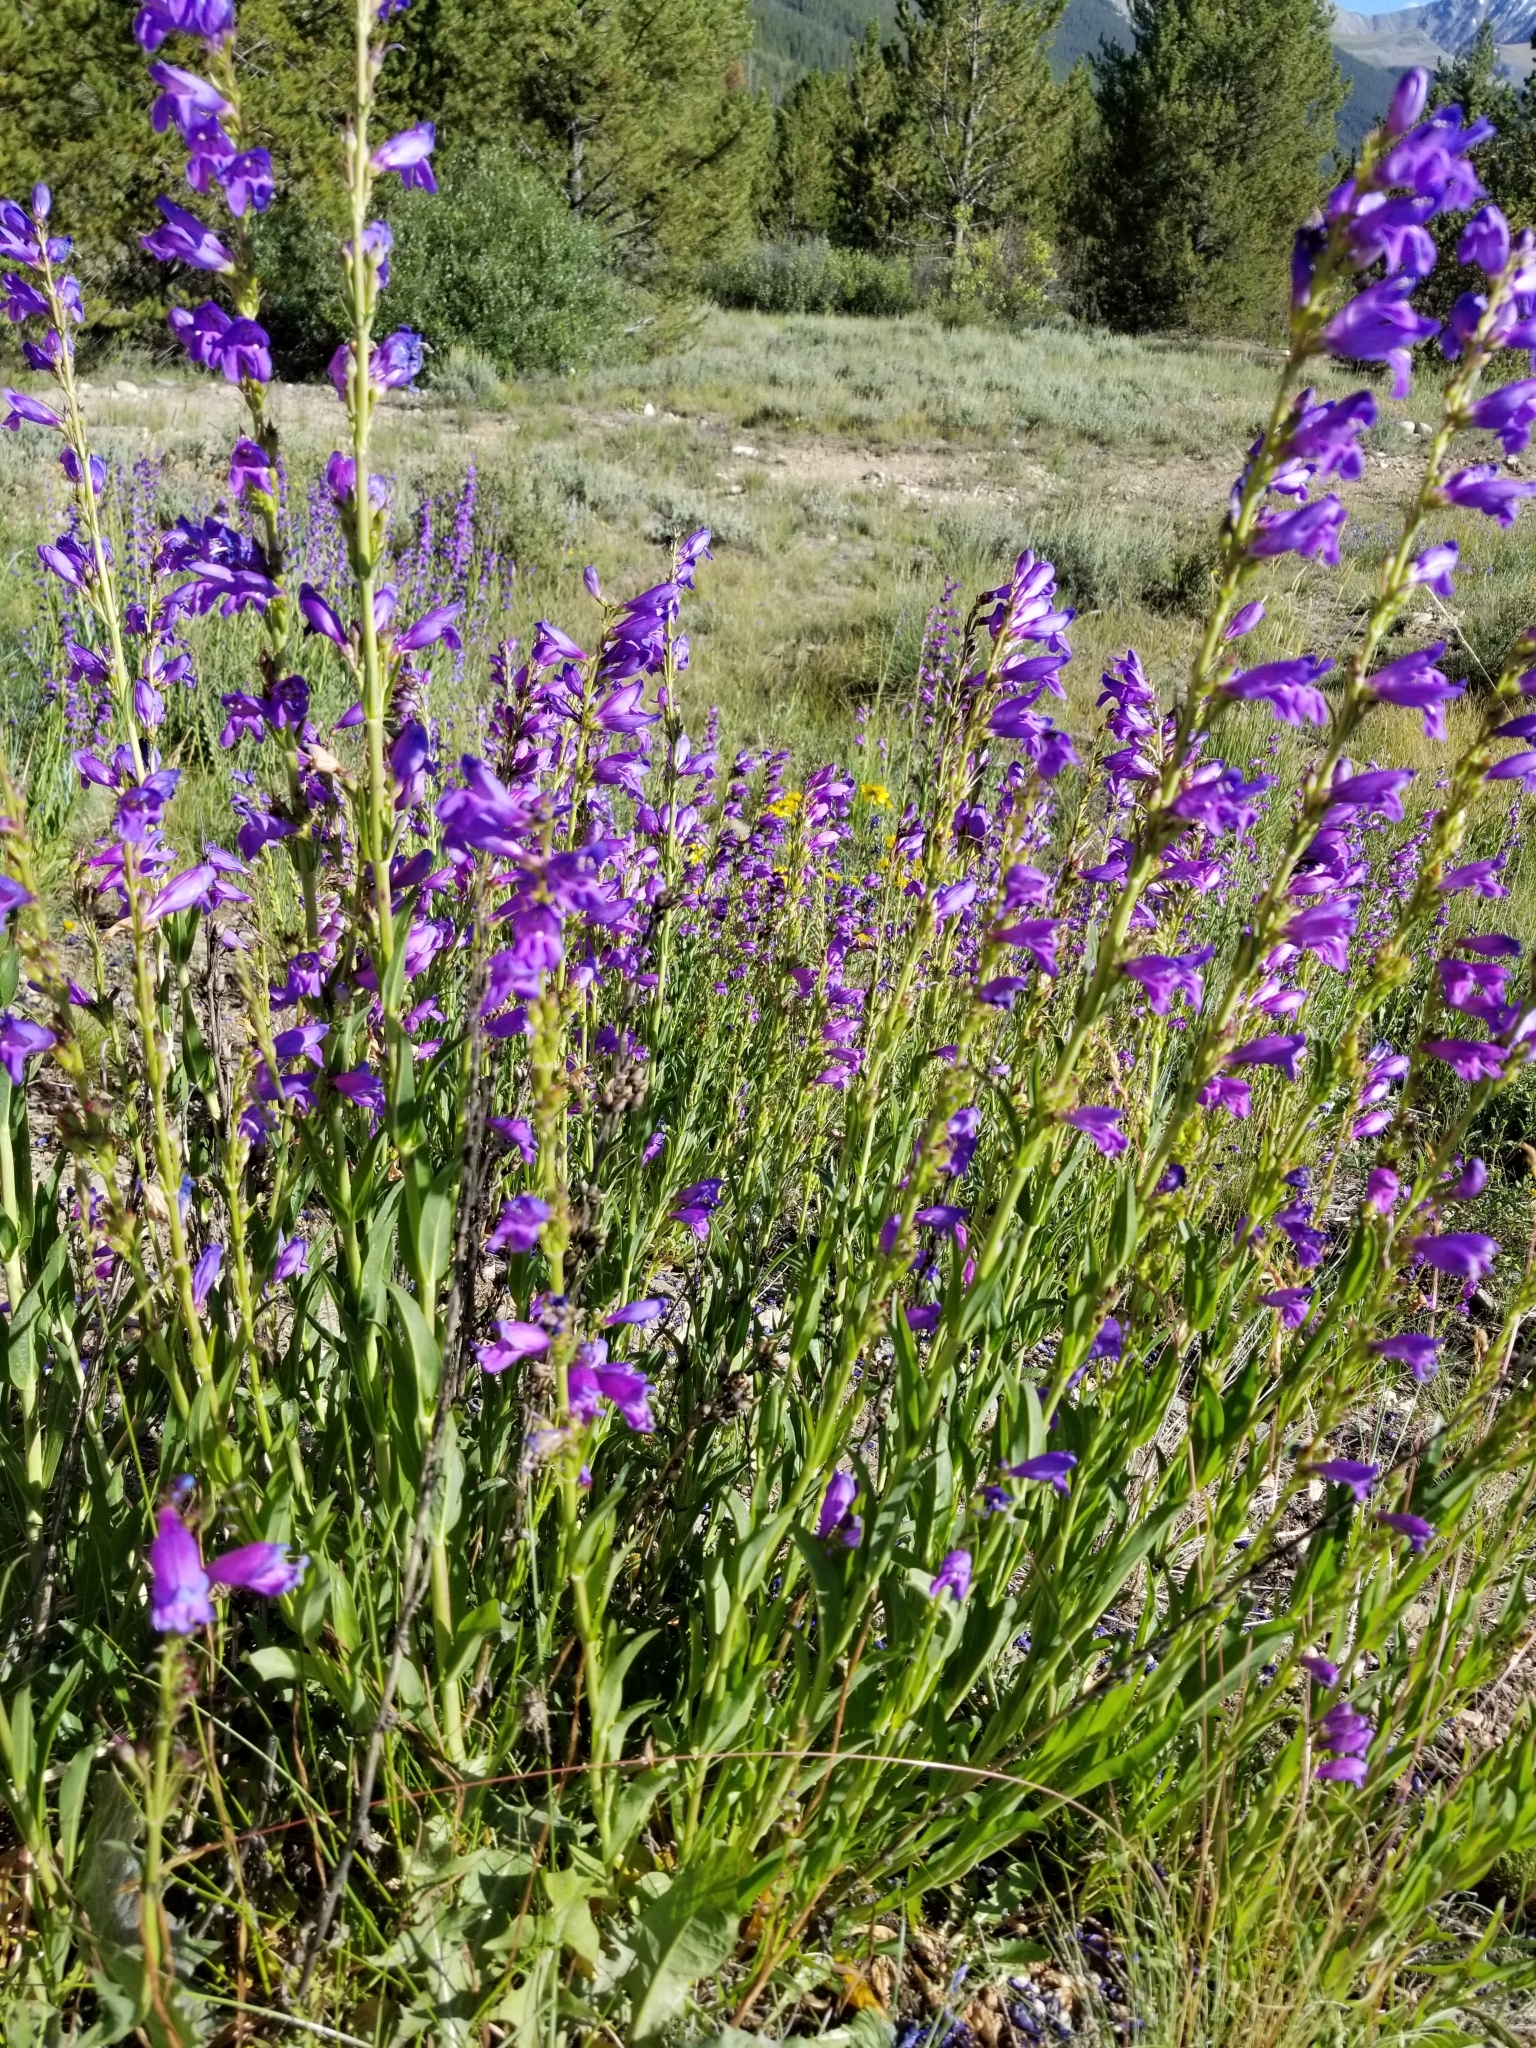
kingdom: Plantae
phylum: Tracheophyta
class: Magnoliopsida
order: Lamiales
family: Plantaginaceae
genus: Penstemon
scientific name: Penstemon strictus
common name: Rocky mountain penstemon
